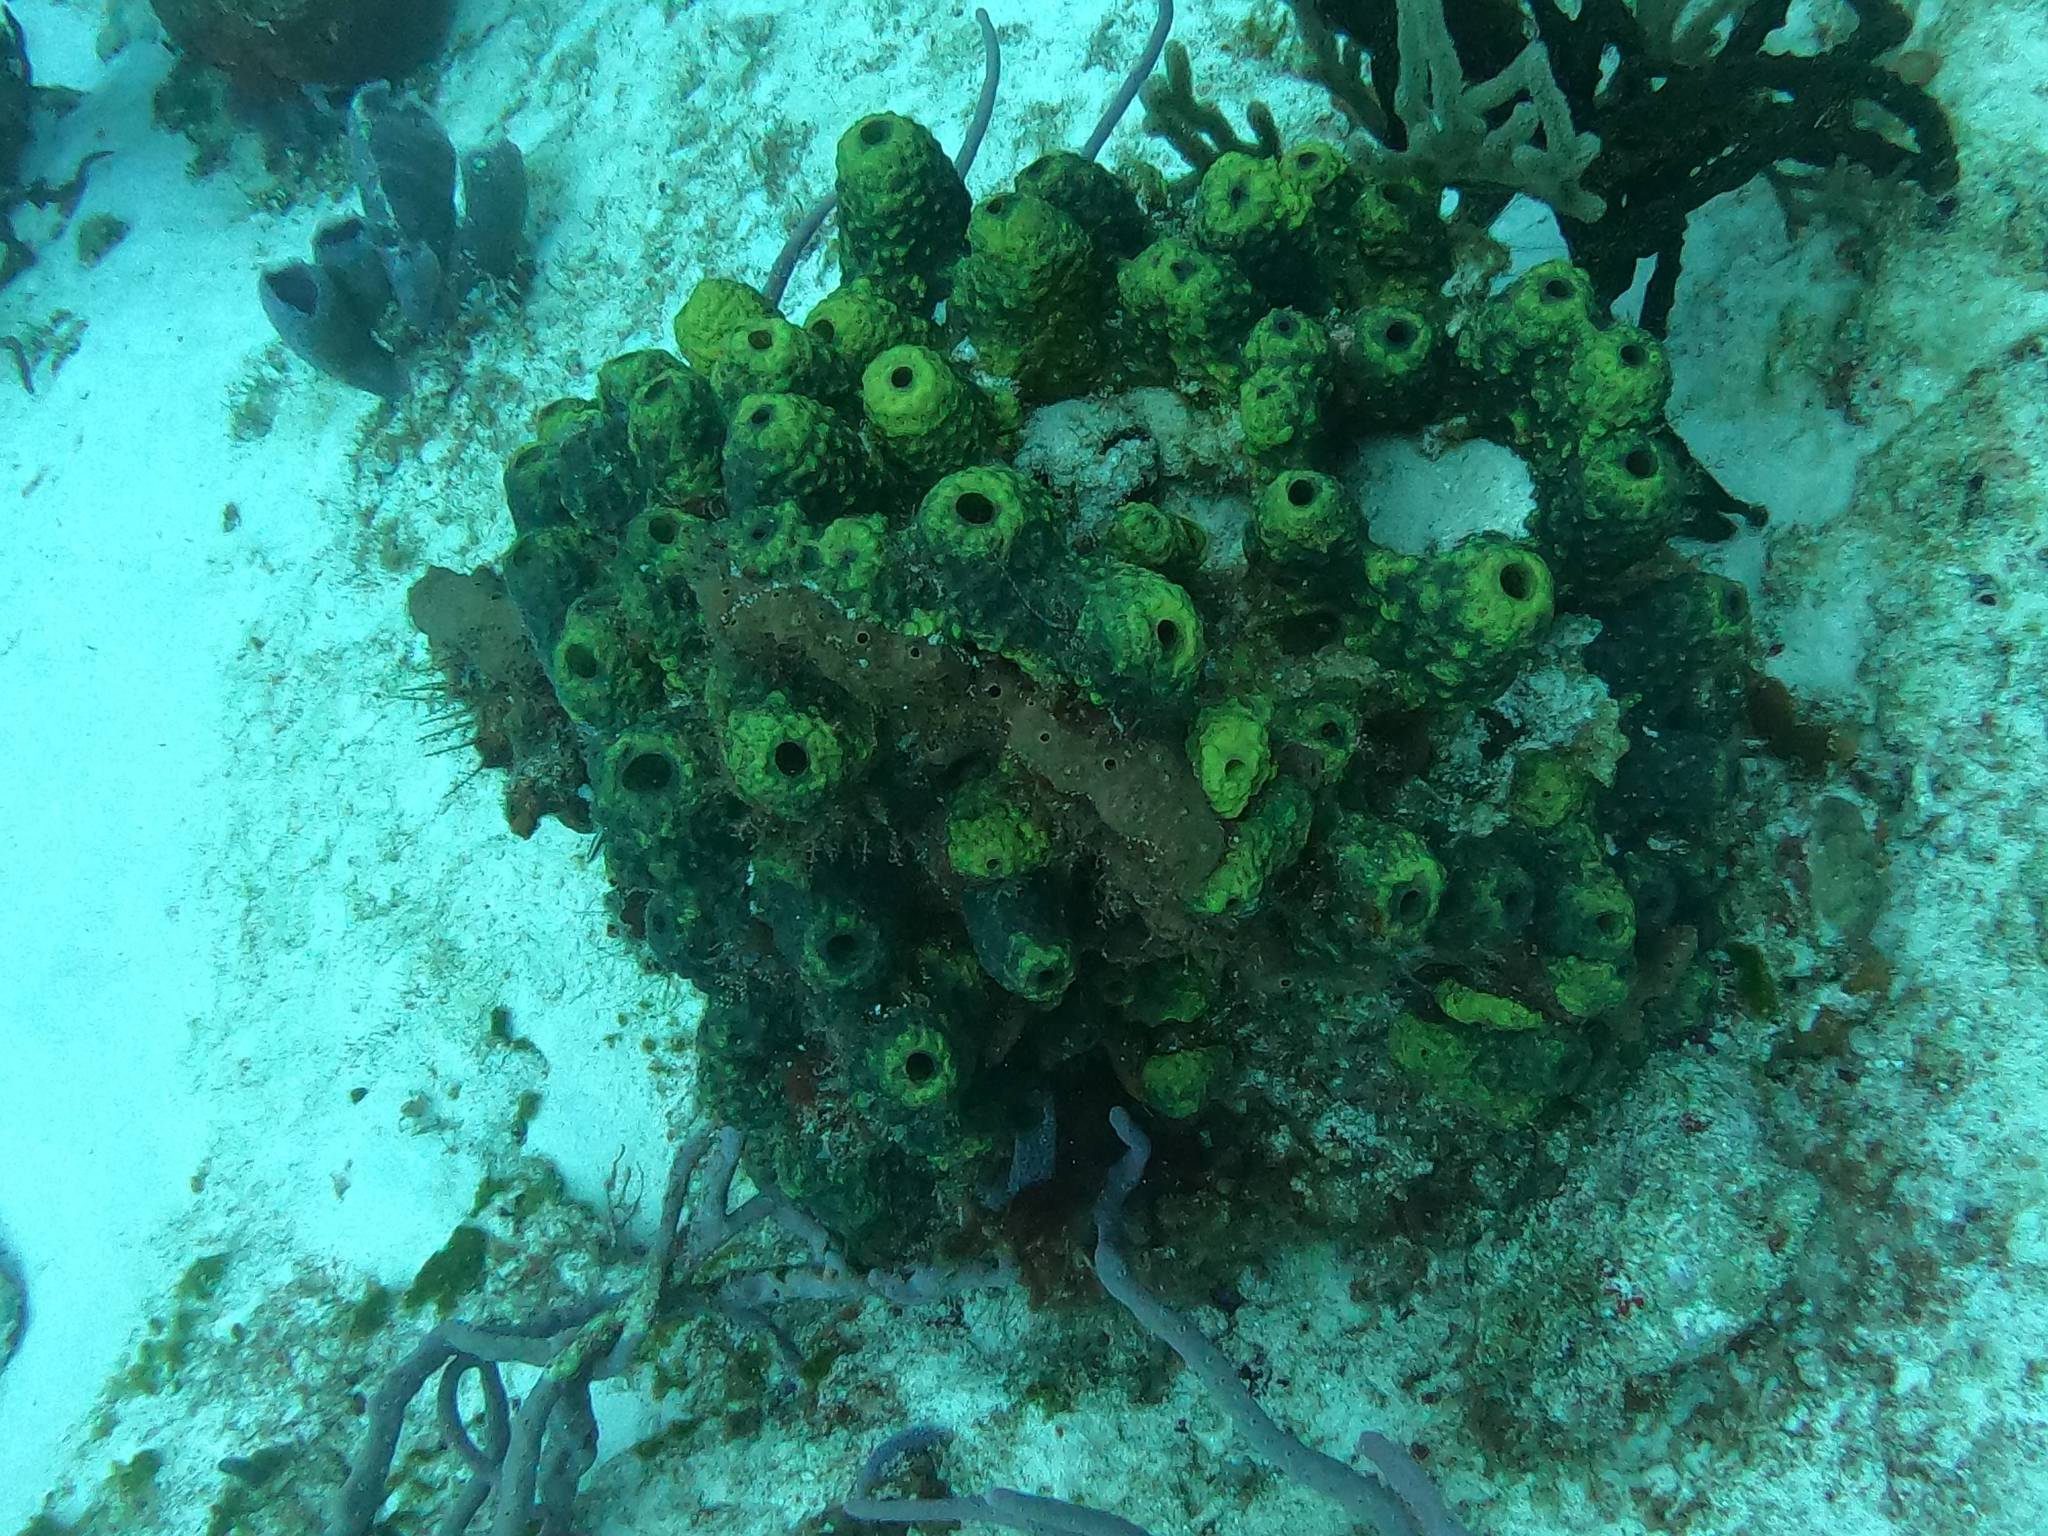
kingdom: Animalia
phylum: Porifera
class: Demospongiae
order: Verongiida
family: Aplysinidae
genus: Aiolochroia
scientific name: Aiolochroia crassa
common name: Branching tube sponge
